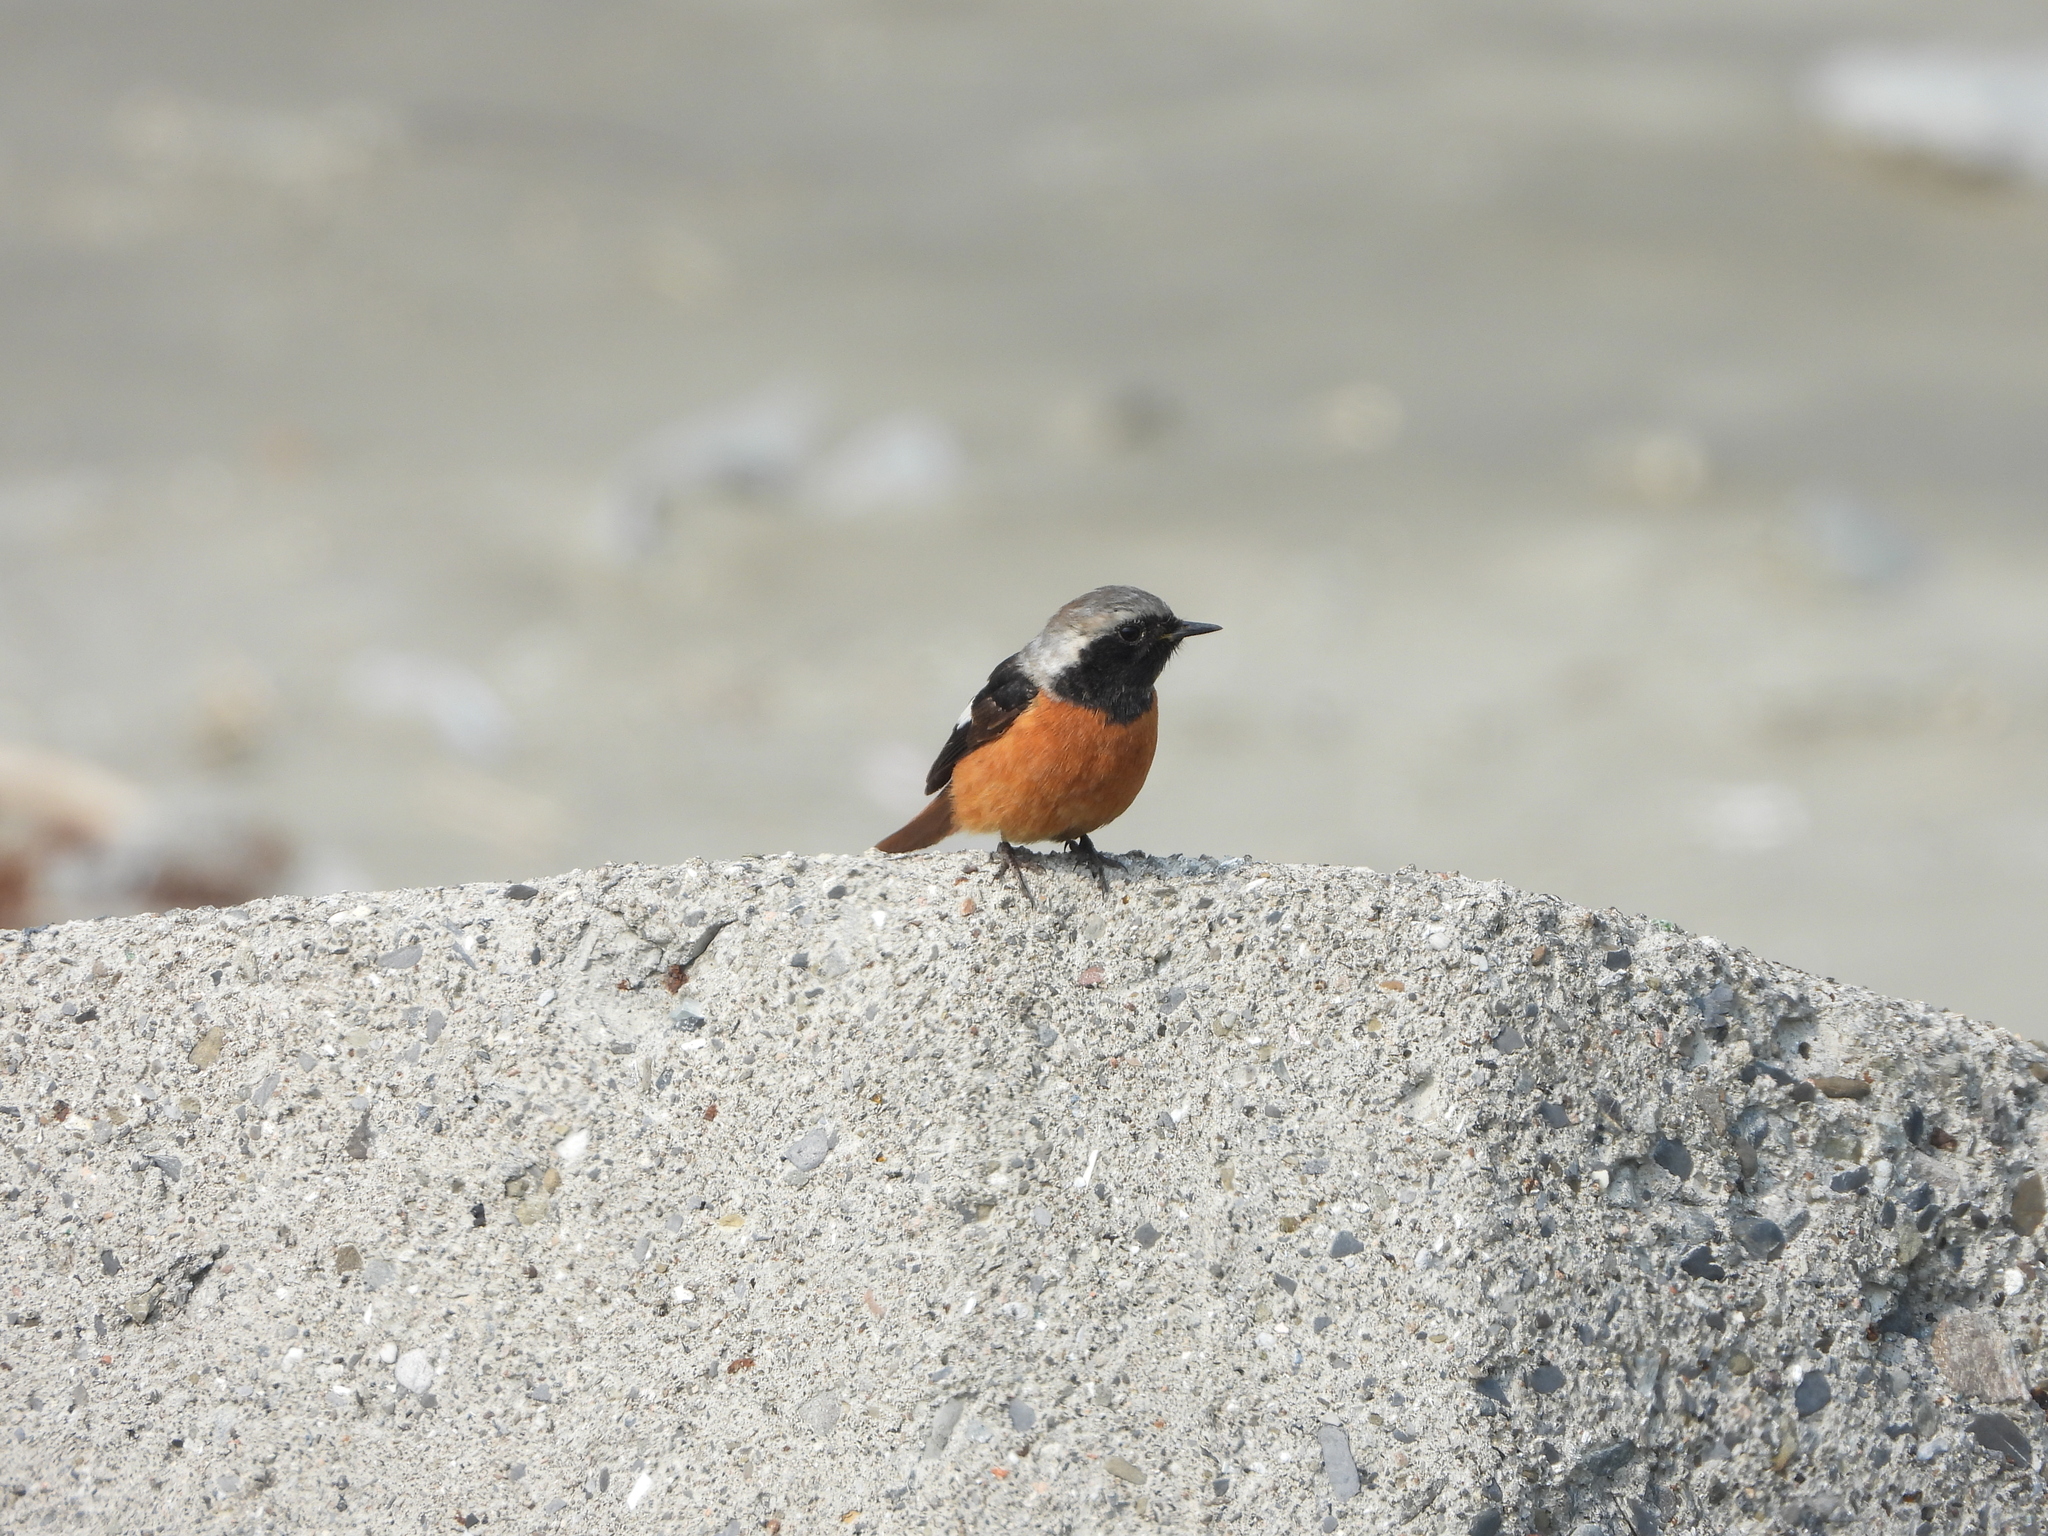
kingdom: Animalia
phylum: Chordata
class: Aves
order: Passeriformes
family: Muscicapidae
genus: Phoenicurus
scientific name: Phoenicurus auroreus
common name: Daurian redstart
